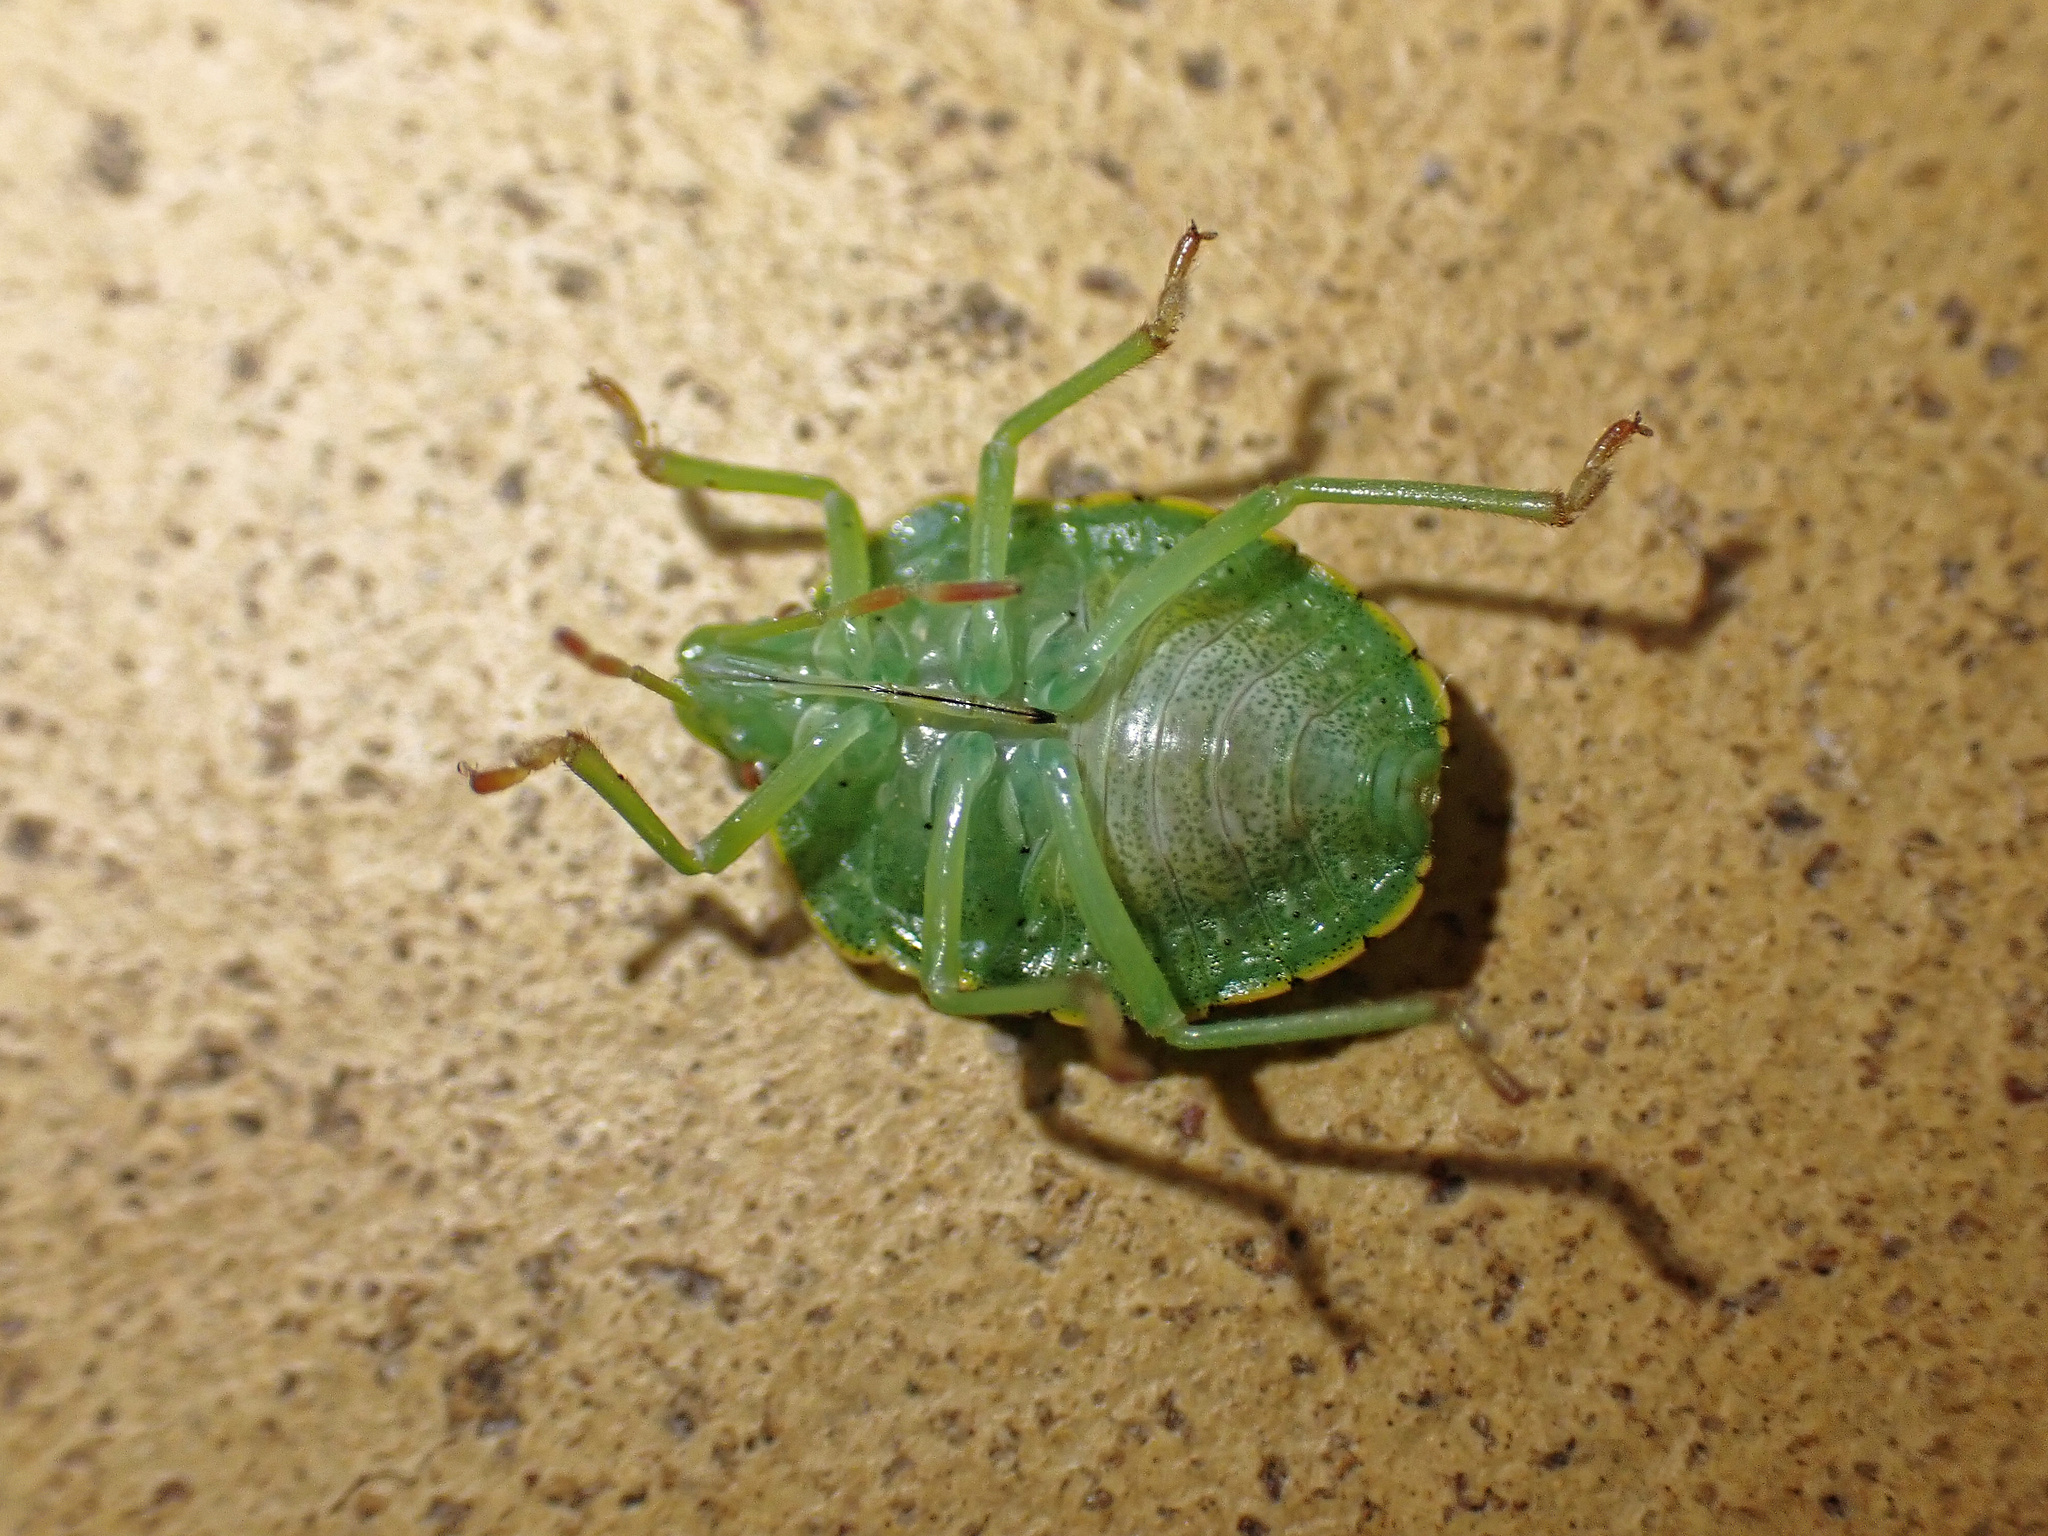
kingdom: Animalia
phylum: Arthropoda
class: Insecta
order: Hemiptera
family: Pentatomidae
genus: Palomena
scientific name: Palomena prasina
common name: Green shieldbug
